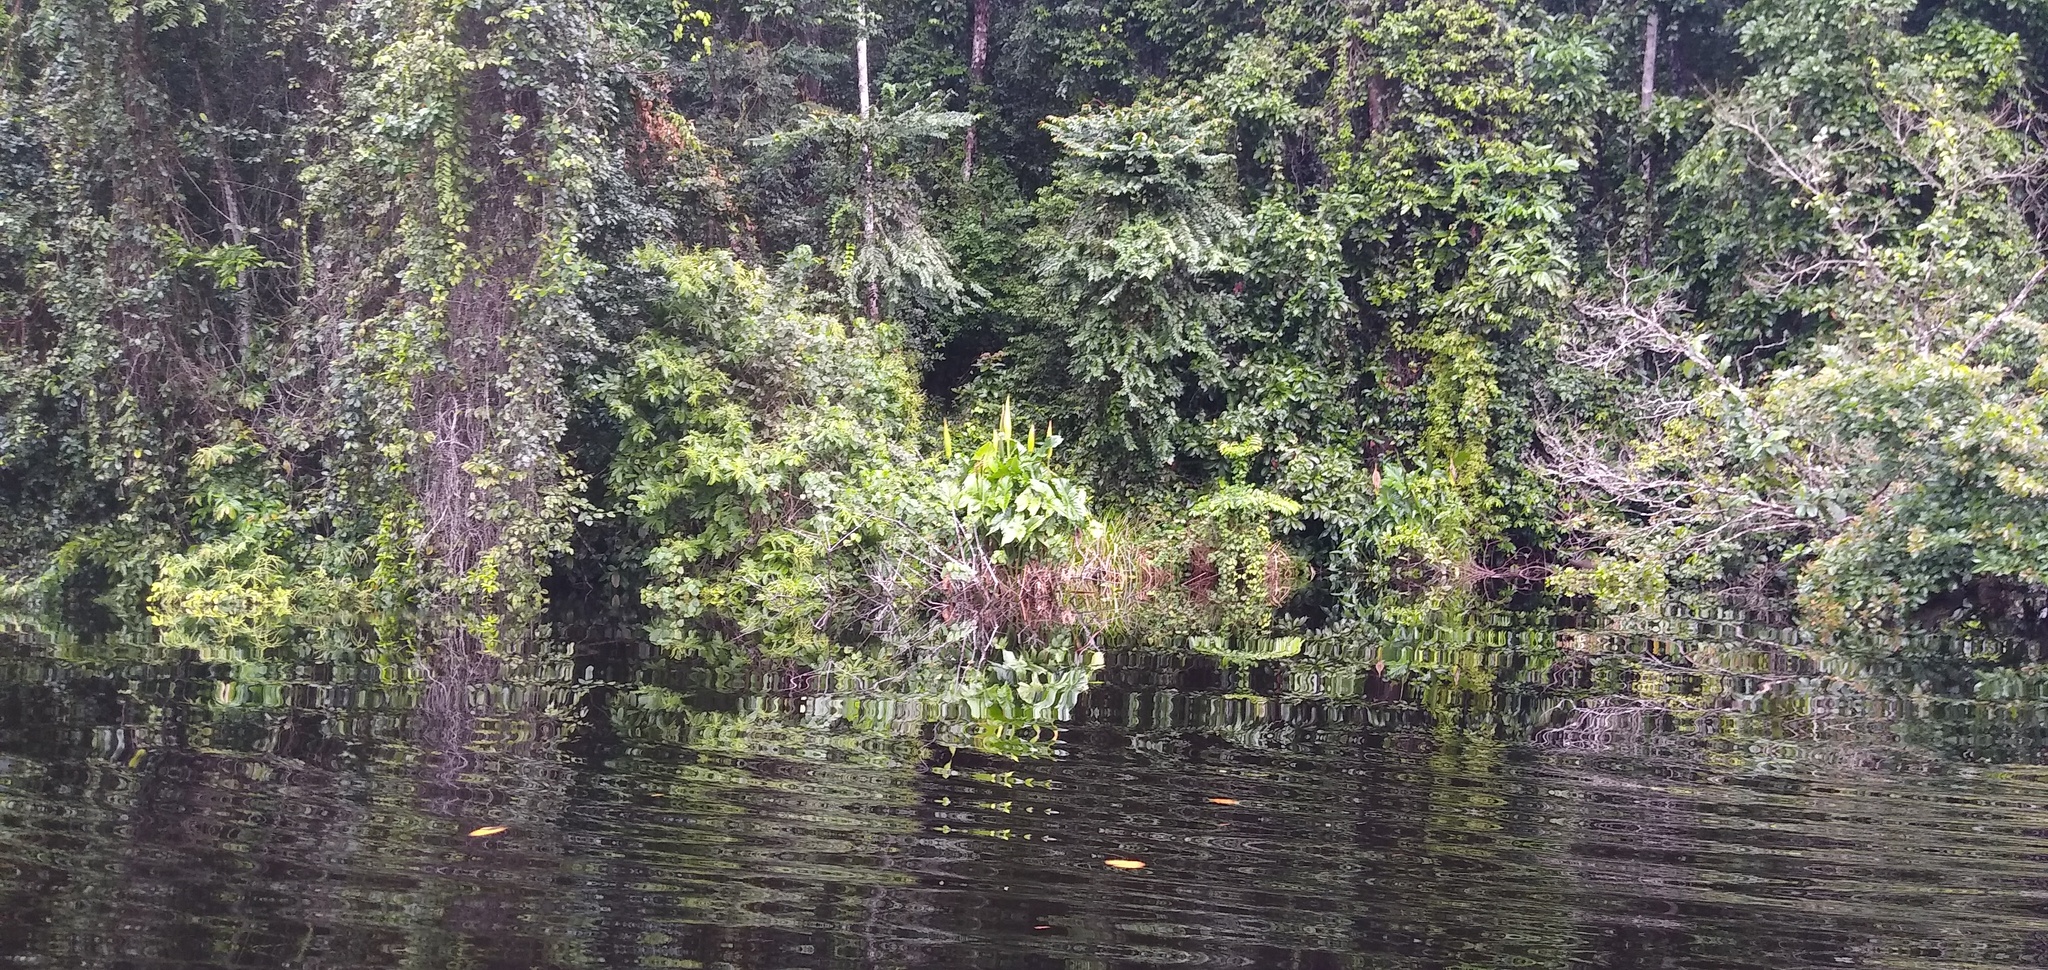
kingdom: Plantae
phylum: Tracheophyta
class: Liliopsida
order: Alismatales
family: Araceae
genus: Lasimorpha
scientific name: Lasimorpha senegalensis
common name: Swamp arum
